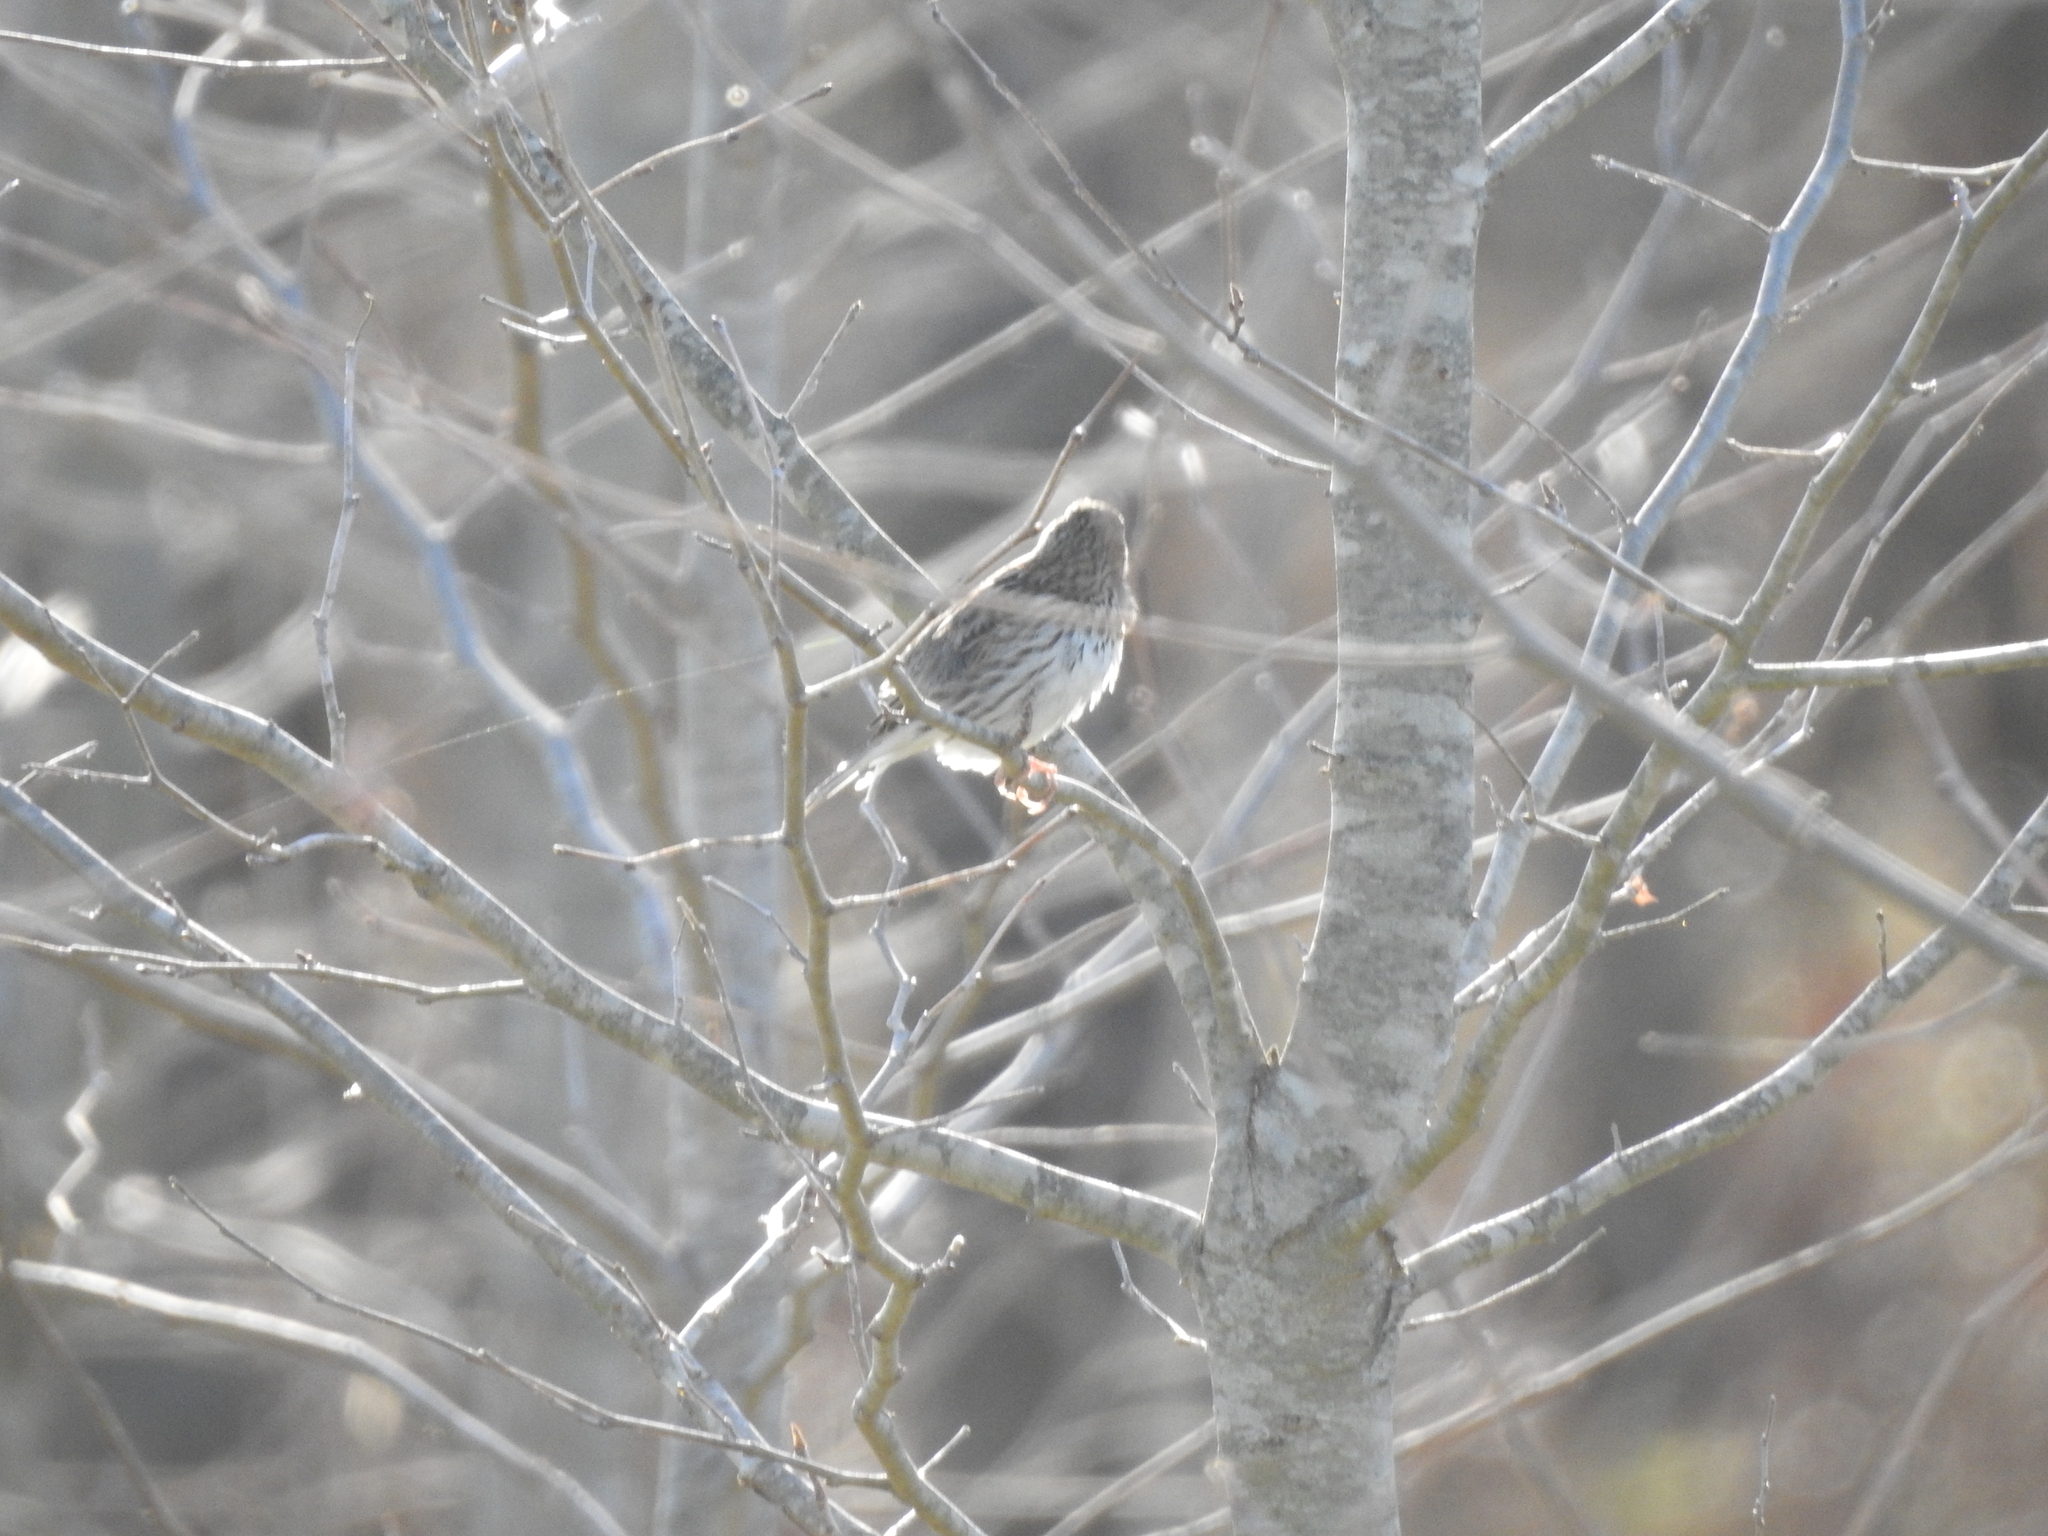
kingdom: Animalia
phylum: Chordata
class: Aves
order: Passeriformes
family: Passerellidae
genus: Passerculus
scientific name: Passerculus sandwichensis
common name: Savannah sparrow
